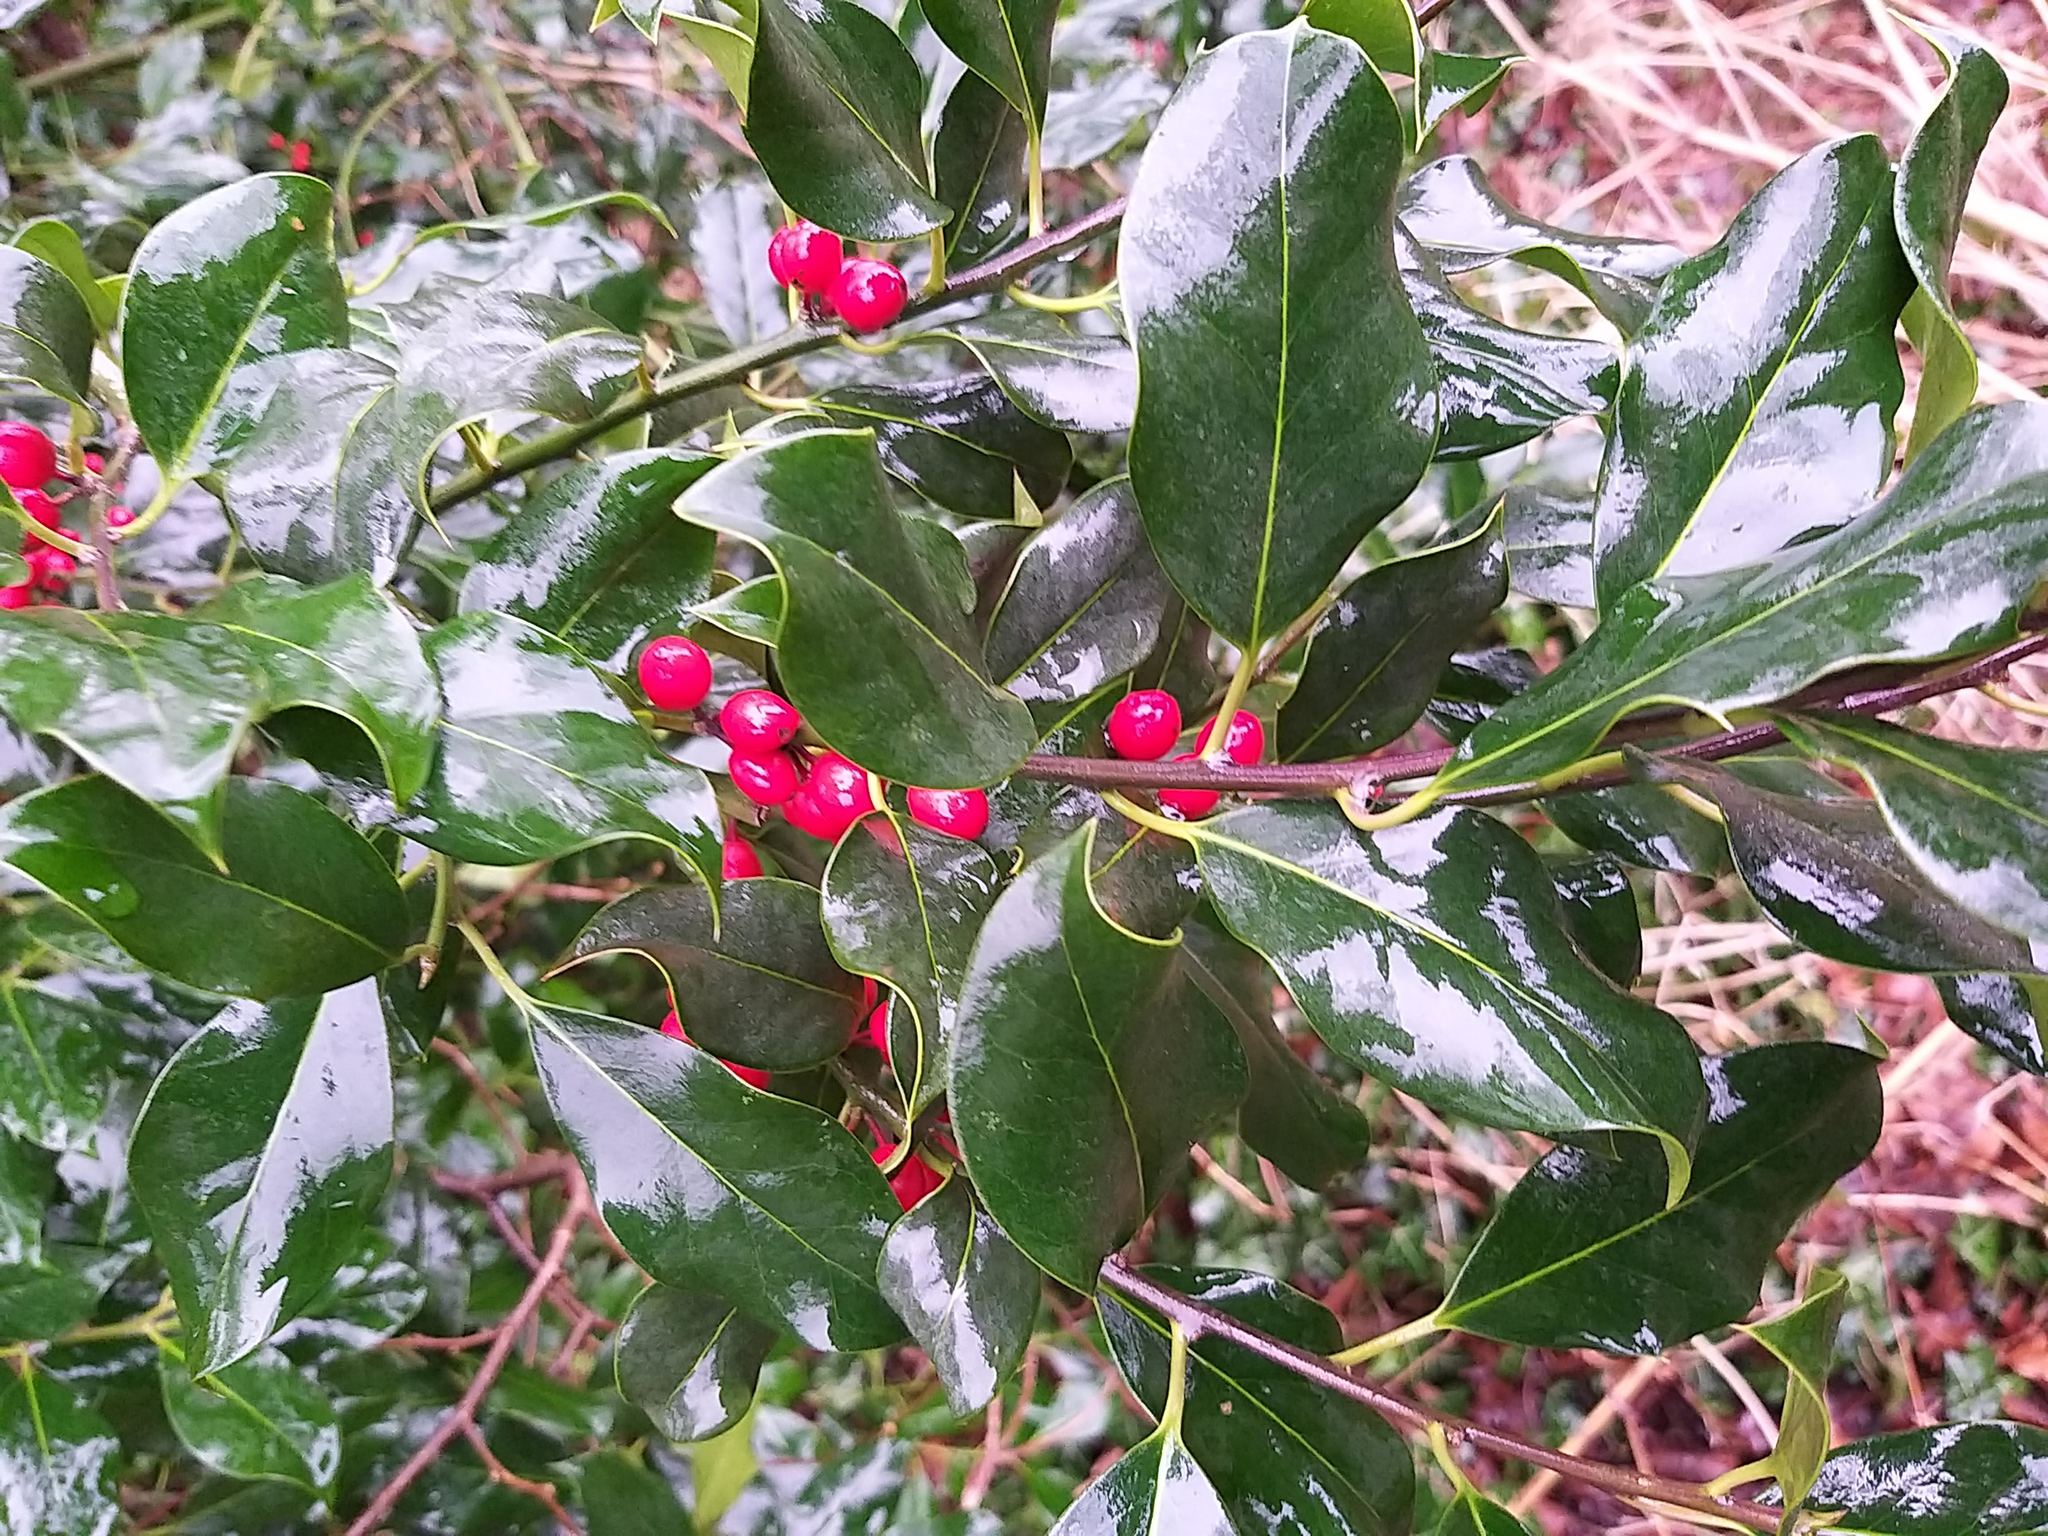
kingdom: Plantae
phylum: Tracheophyta
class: Magnoliopsida
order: Aquifoliales
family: Aquifoliaceae
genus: Ilex
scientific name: Ilex aquifolium
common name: English holly
